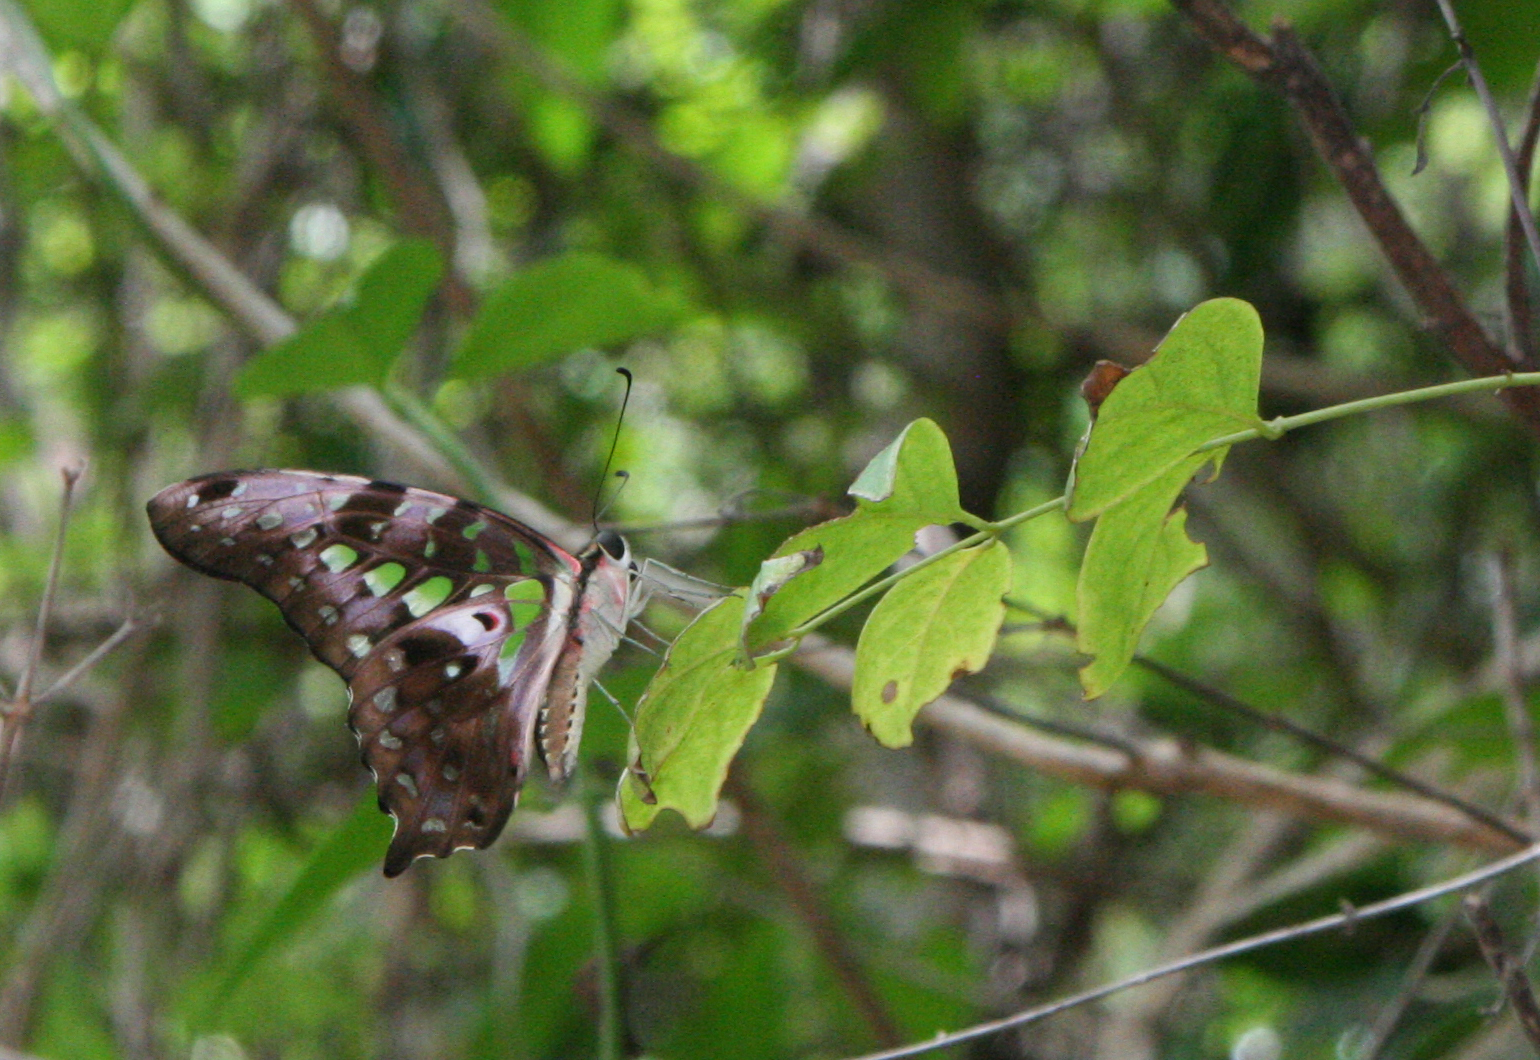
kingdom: Animalia
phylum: Arthropoda
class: Insecta
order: Lepidoptera
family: Papilionidae
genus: Graphium
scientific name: Graphium agamemnon
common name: Tailed jay
